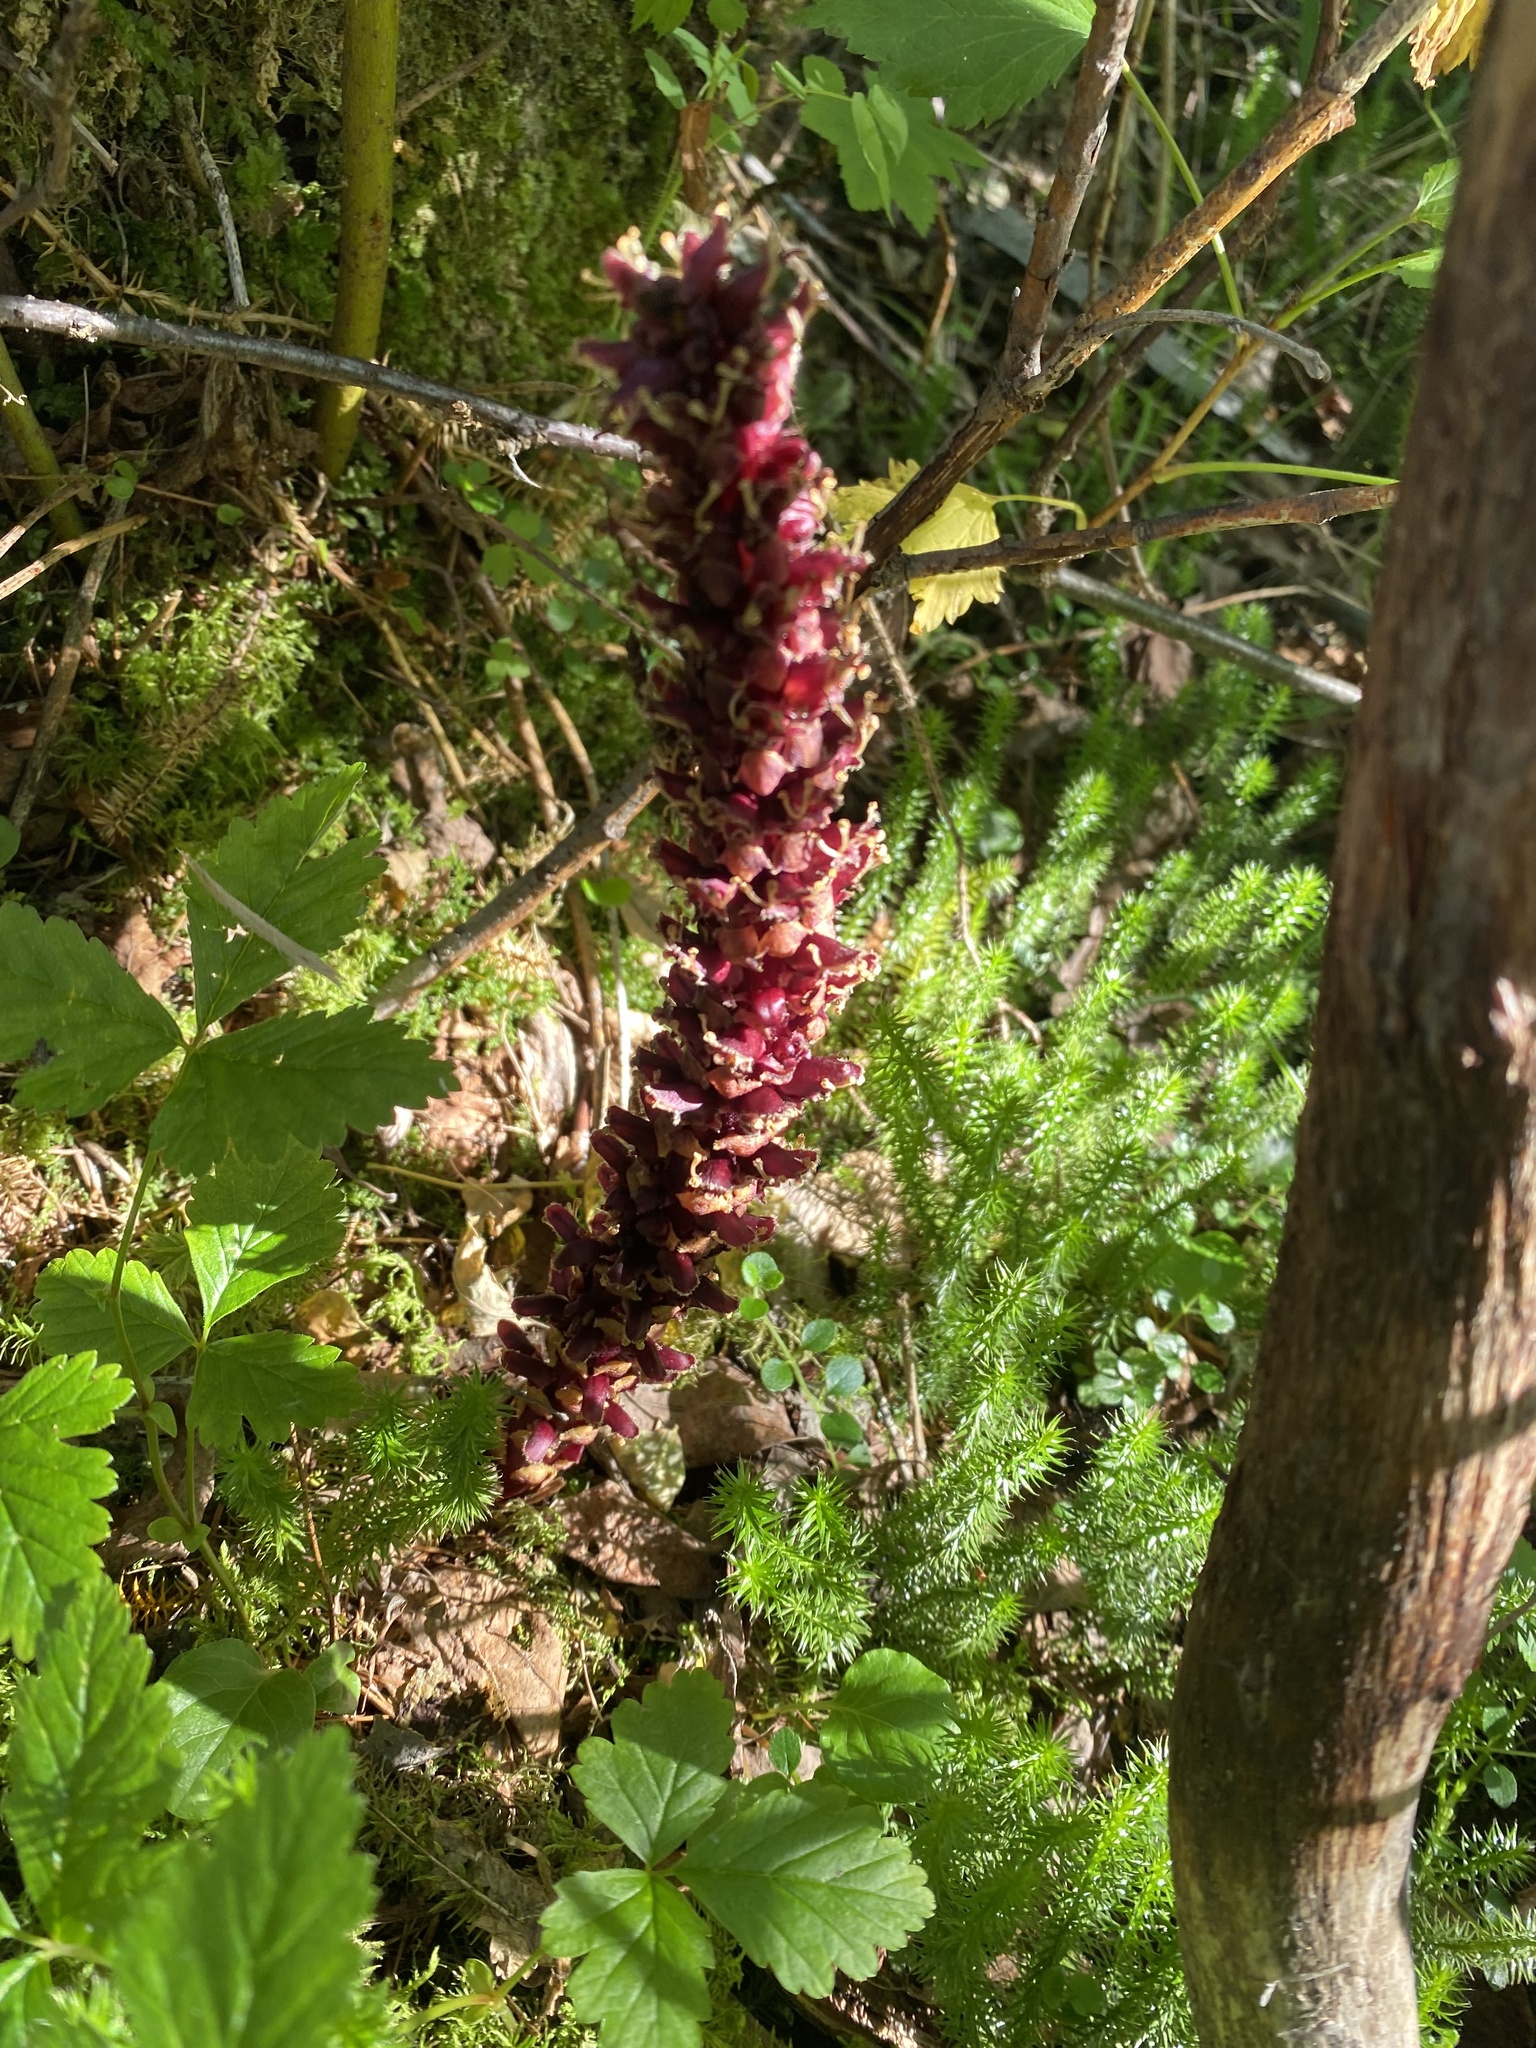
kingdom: Plantae
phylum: Tracheophyta
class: Magnoliopsida
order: Lamiales
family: Orobanchaceae
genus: Boschniakia
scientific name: Boschniakia rossica
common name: Poque
